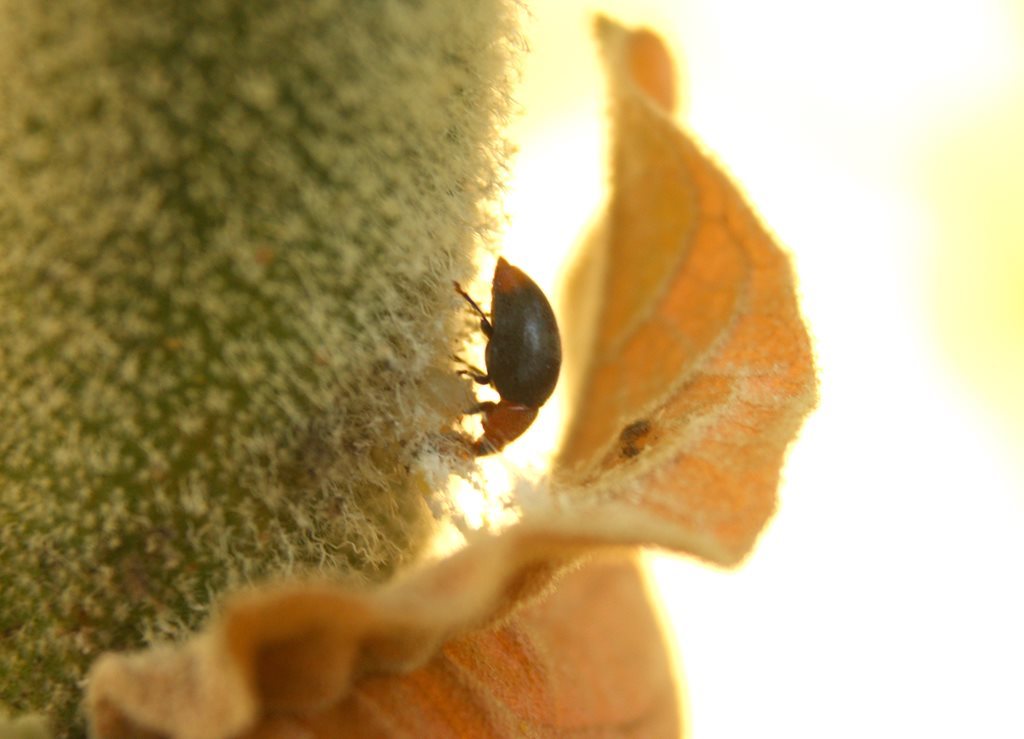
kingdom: Animalia
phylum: Arthropoda
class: Insecta
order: Coleoptera
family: Coccinellidae
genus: Cryptolaemus
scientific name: Cryptolaemus montrouzieri
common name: Mealybug destroyer
